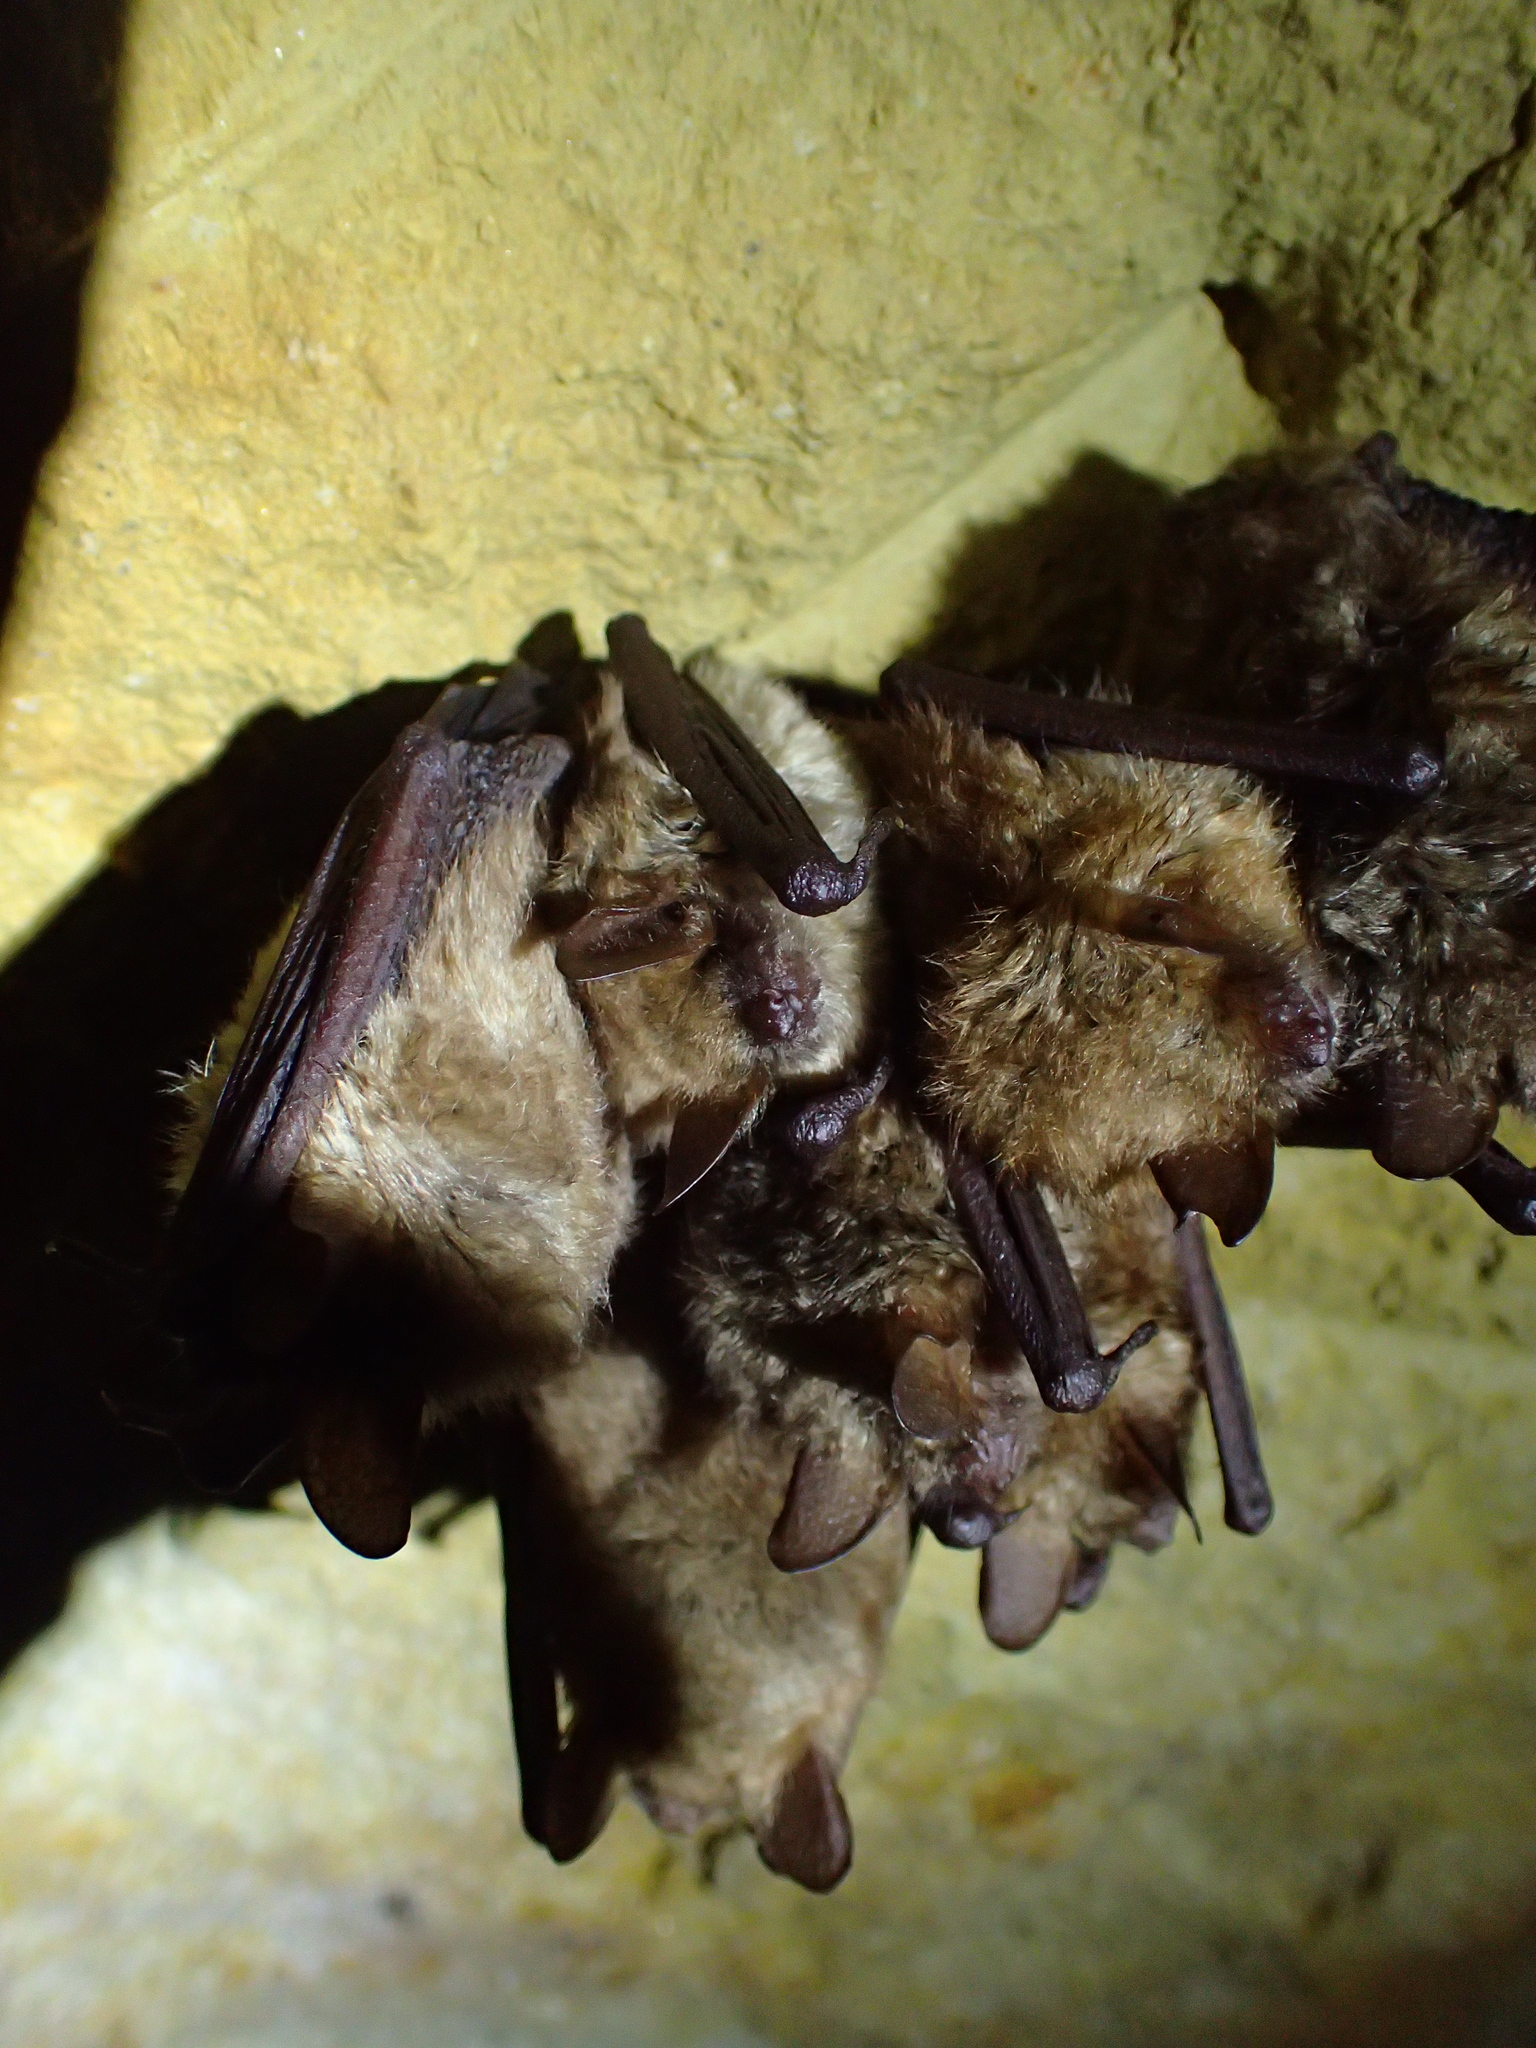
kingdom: Animalia
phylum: Chordata
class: Mammalia
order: Chiroptera
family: Vespertilionidae
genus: Myotis
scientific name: Myotis emarginatus
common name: Geoffroy's bat
